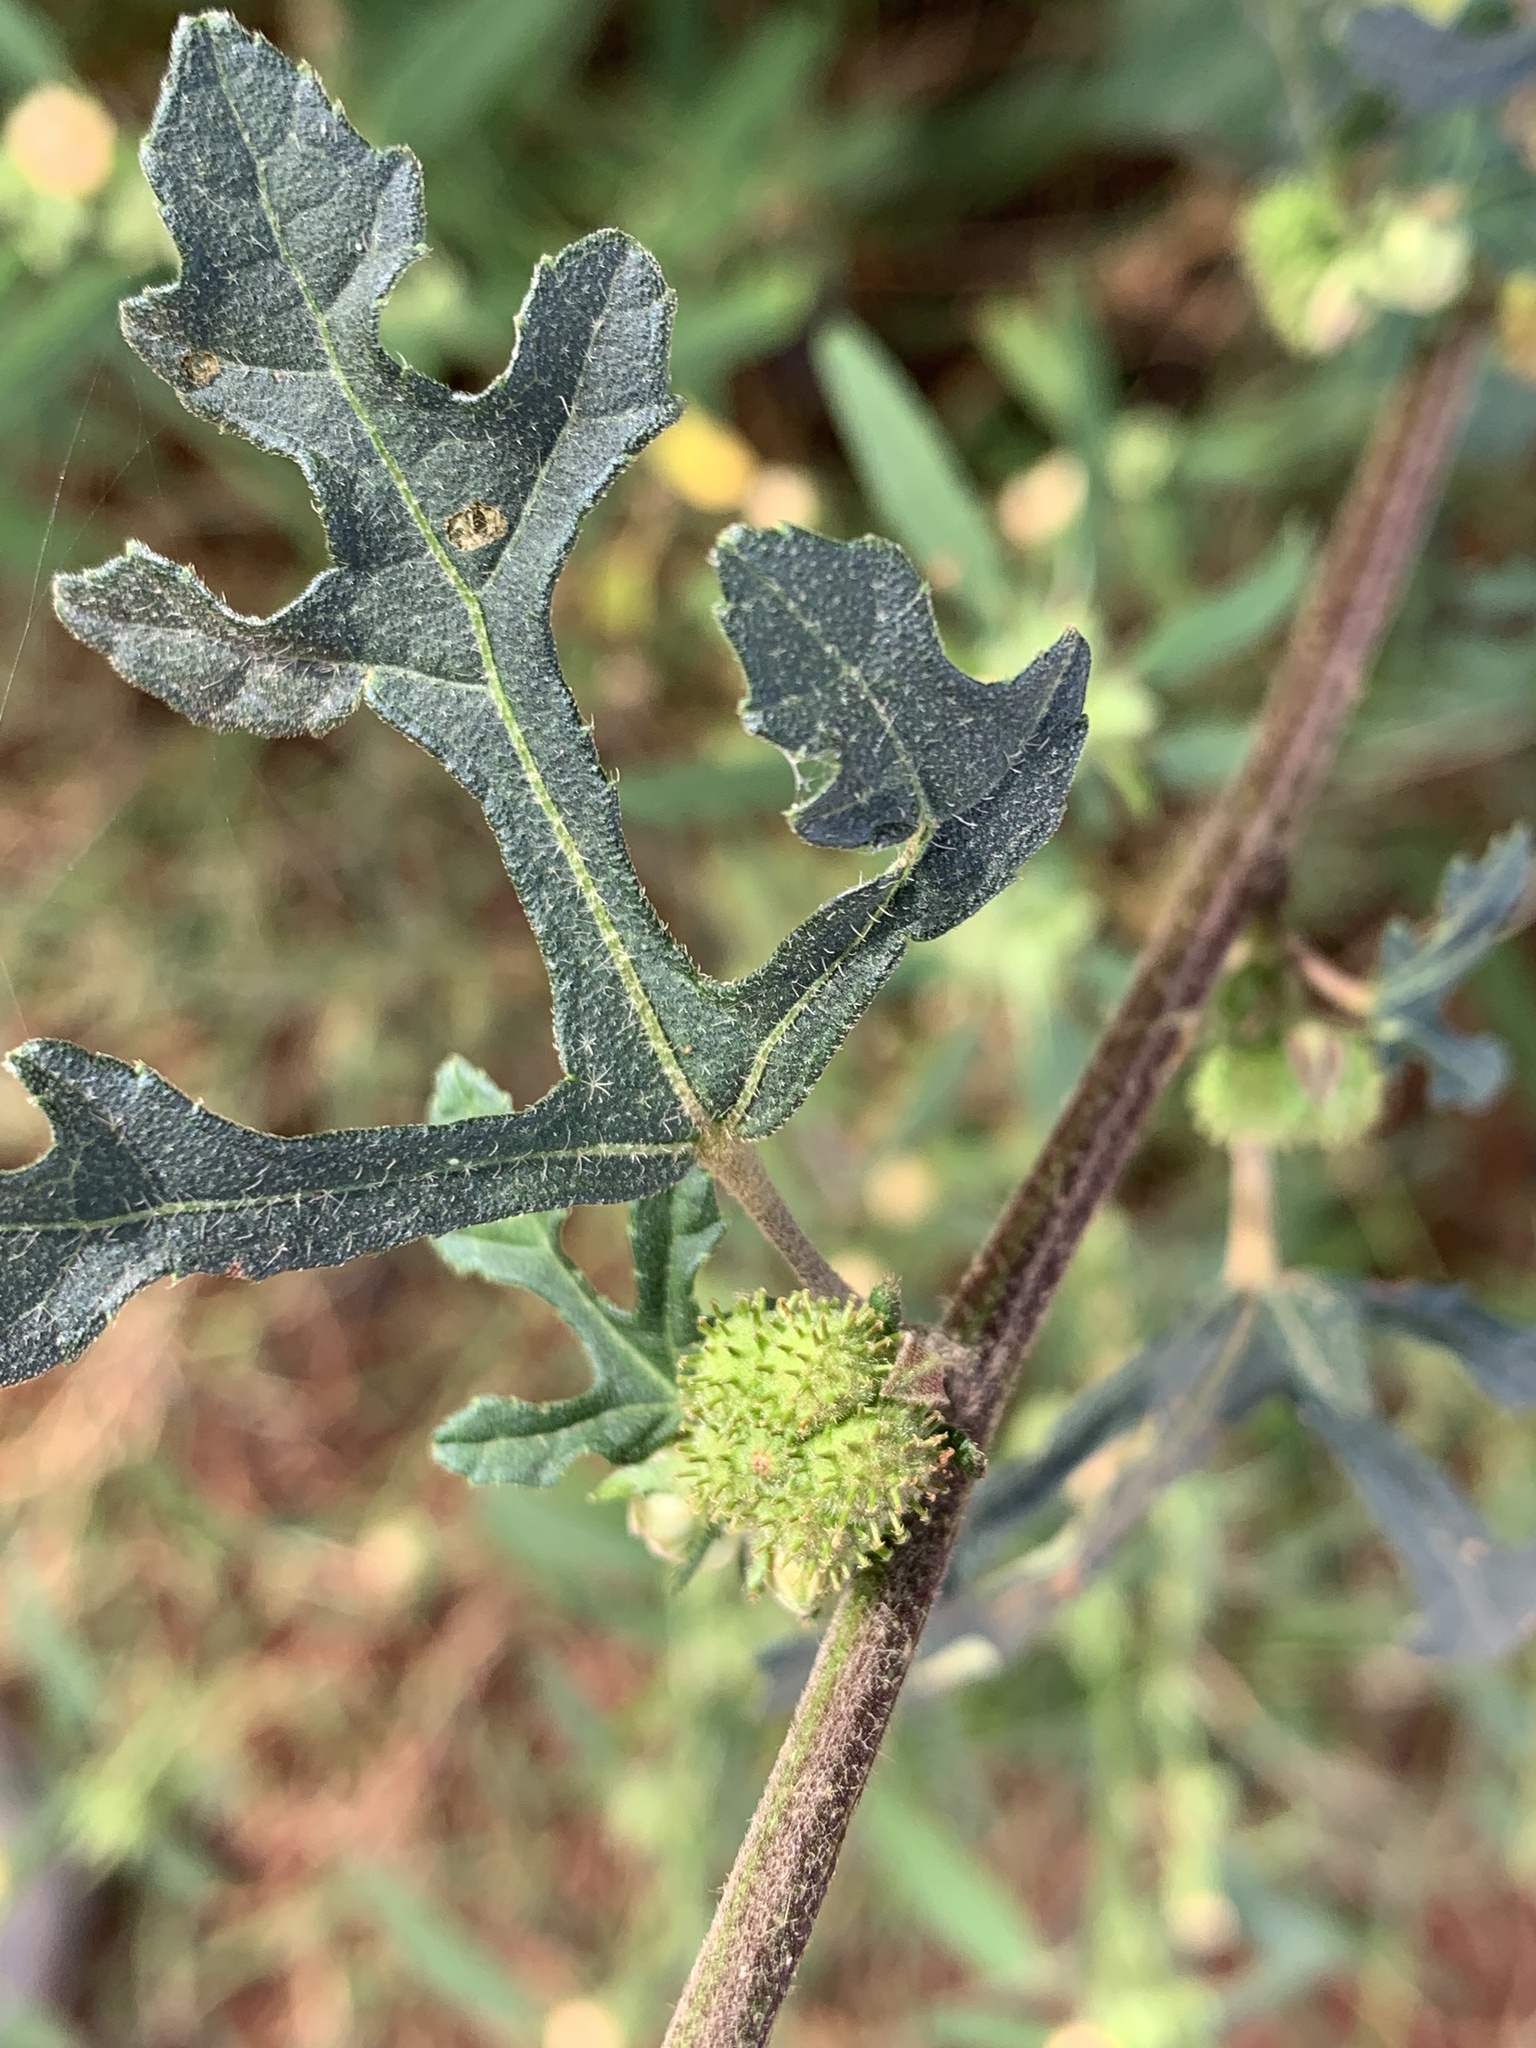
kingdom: Plantae
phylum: Tracheophyta
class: Magnoliopsida
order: Malvales
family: Malvaceae
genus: Urena
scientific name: Urena lobata
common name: Caesarweed
